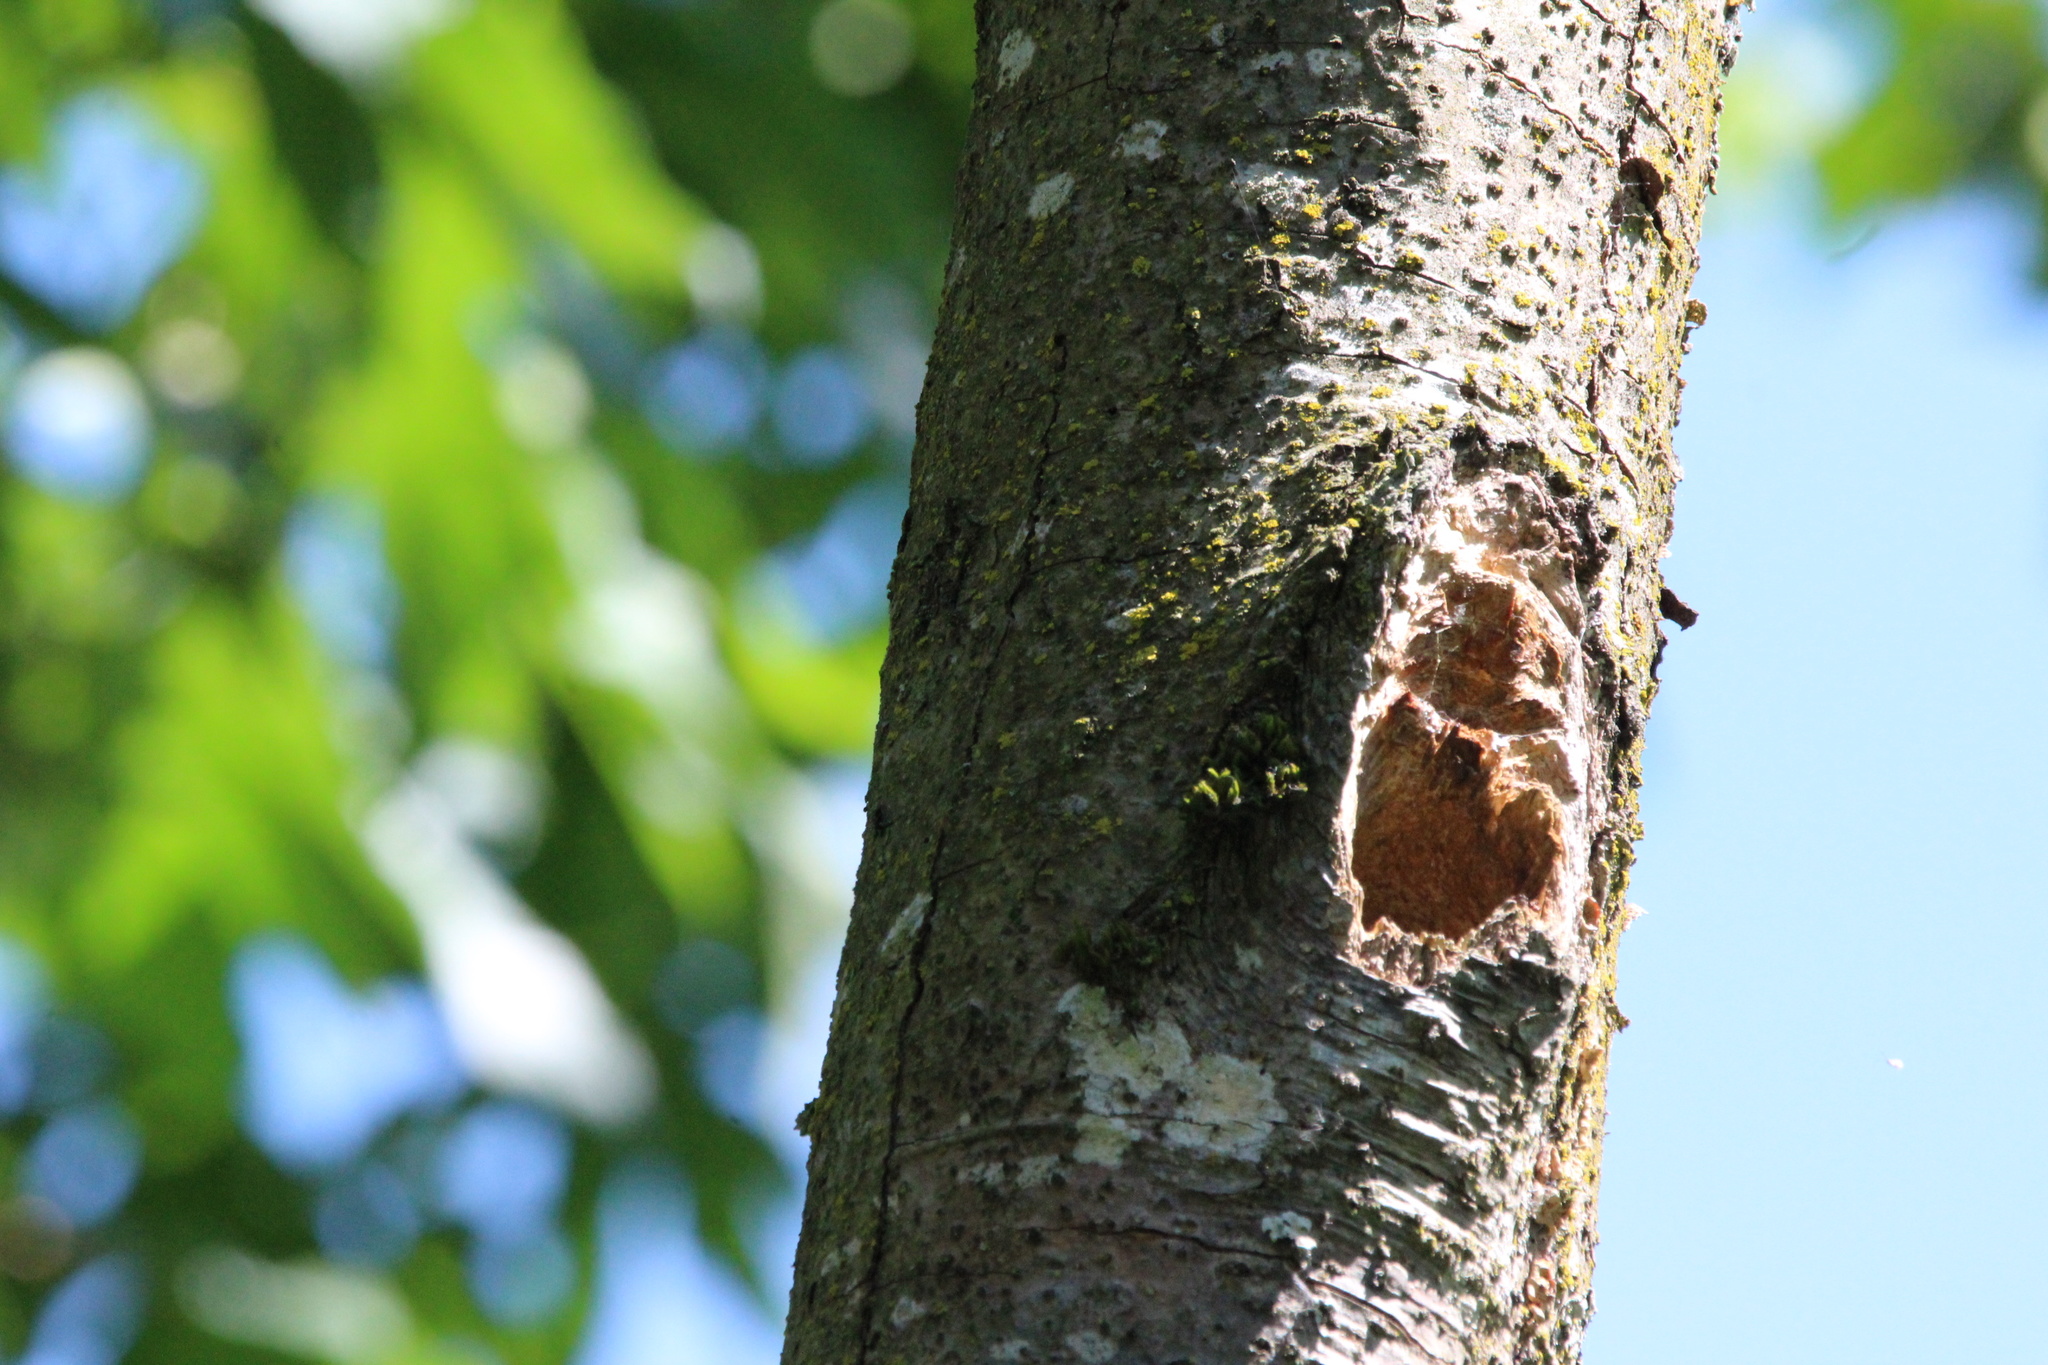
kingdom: Animalia
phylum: Chordata
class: Aves
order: Passeriformes
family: Paridae
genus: Poecile
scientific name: Poecile atricapillus
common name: Black-capped chickadee
